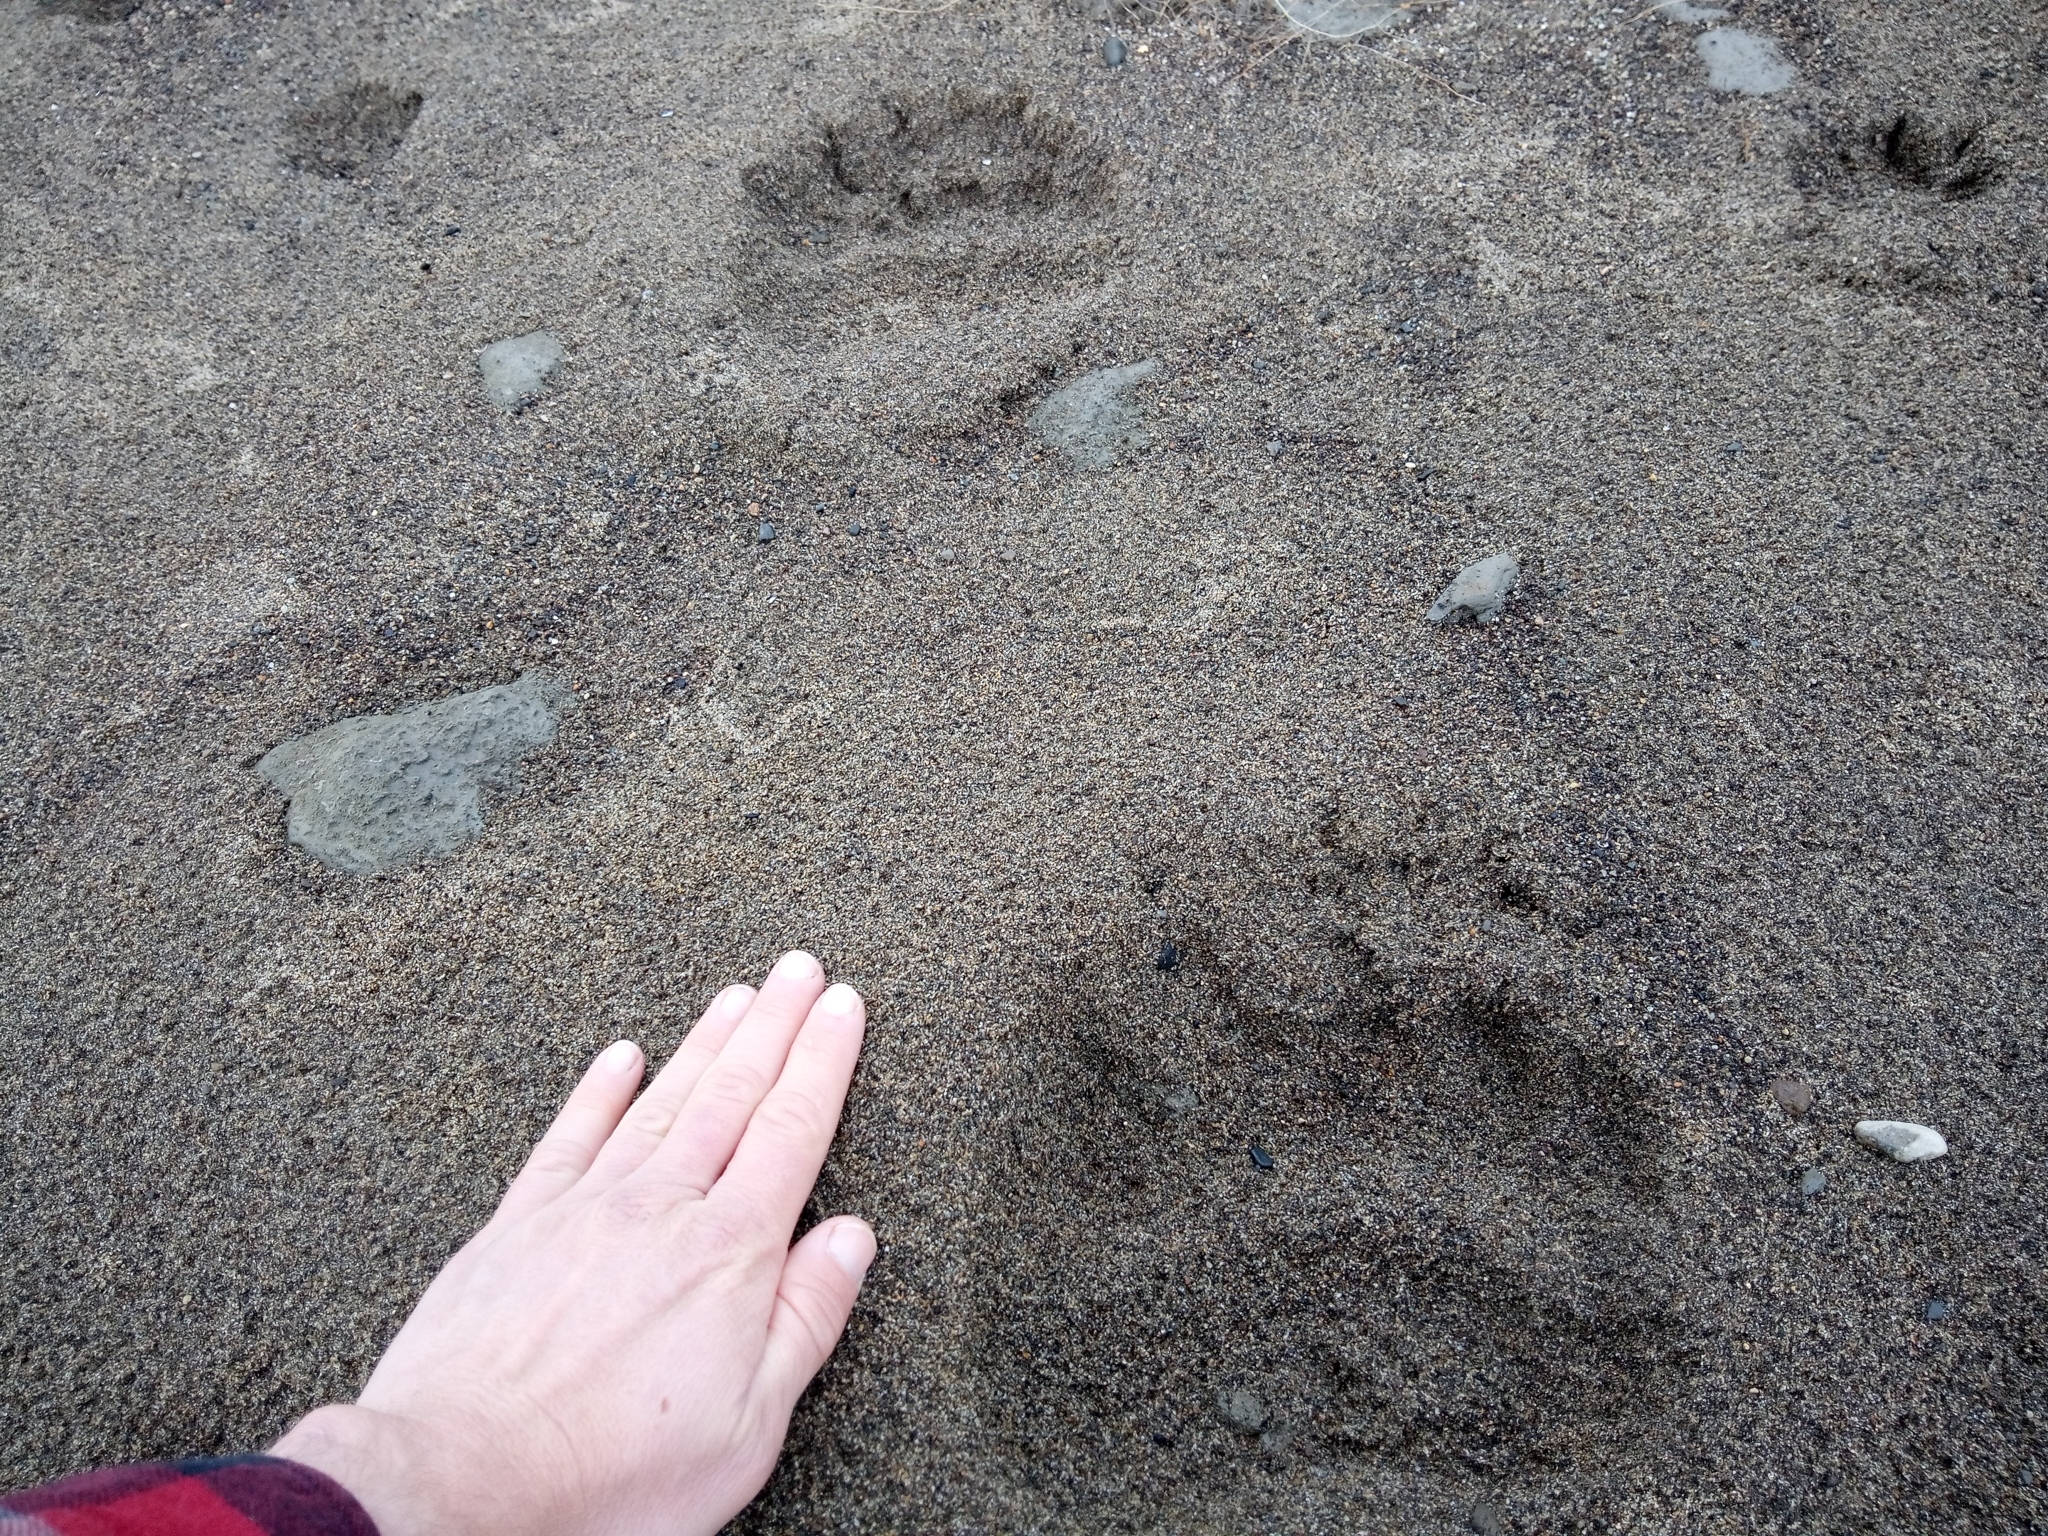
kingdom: Animalia
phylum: Chordata
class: Mammalia
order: Carnivora
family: Ursidae
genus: Ursus
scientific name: Ursus arctos
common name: Brown bear
